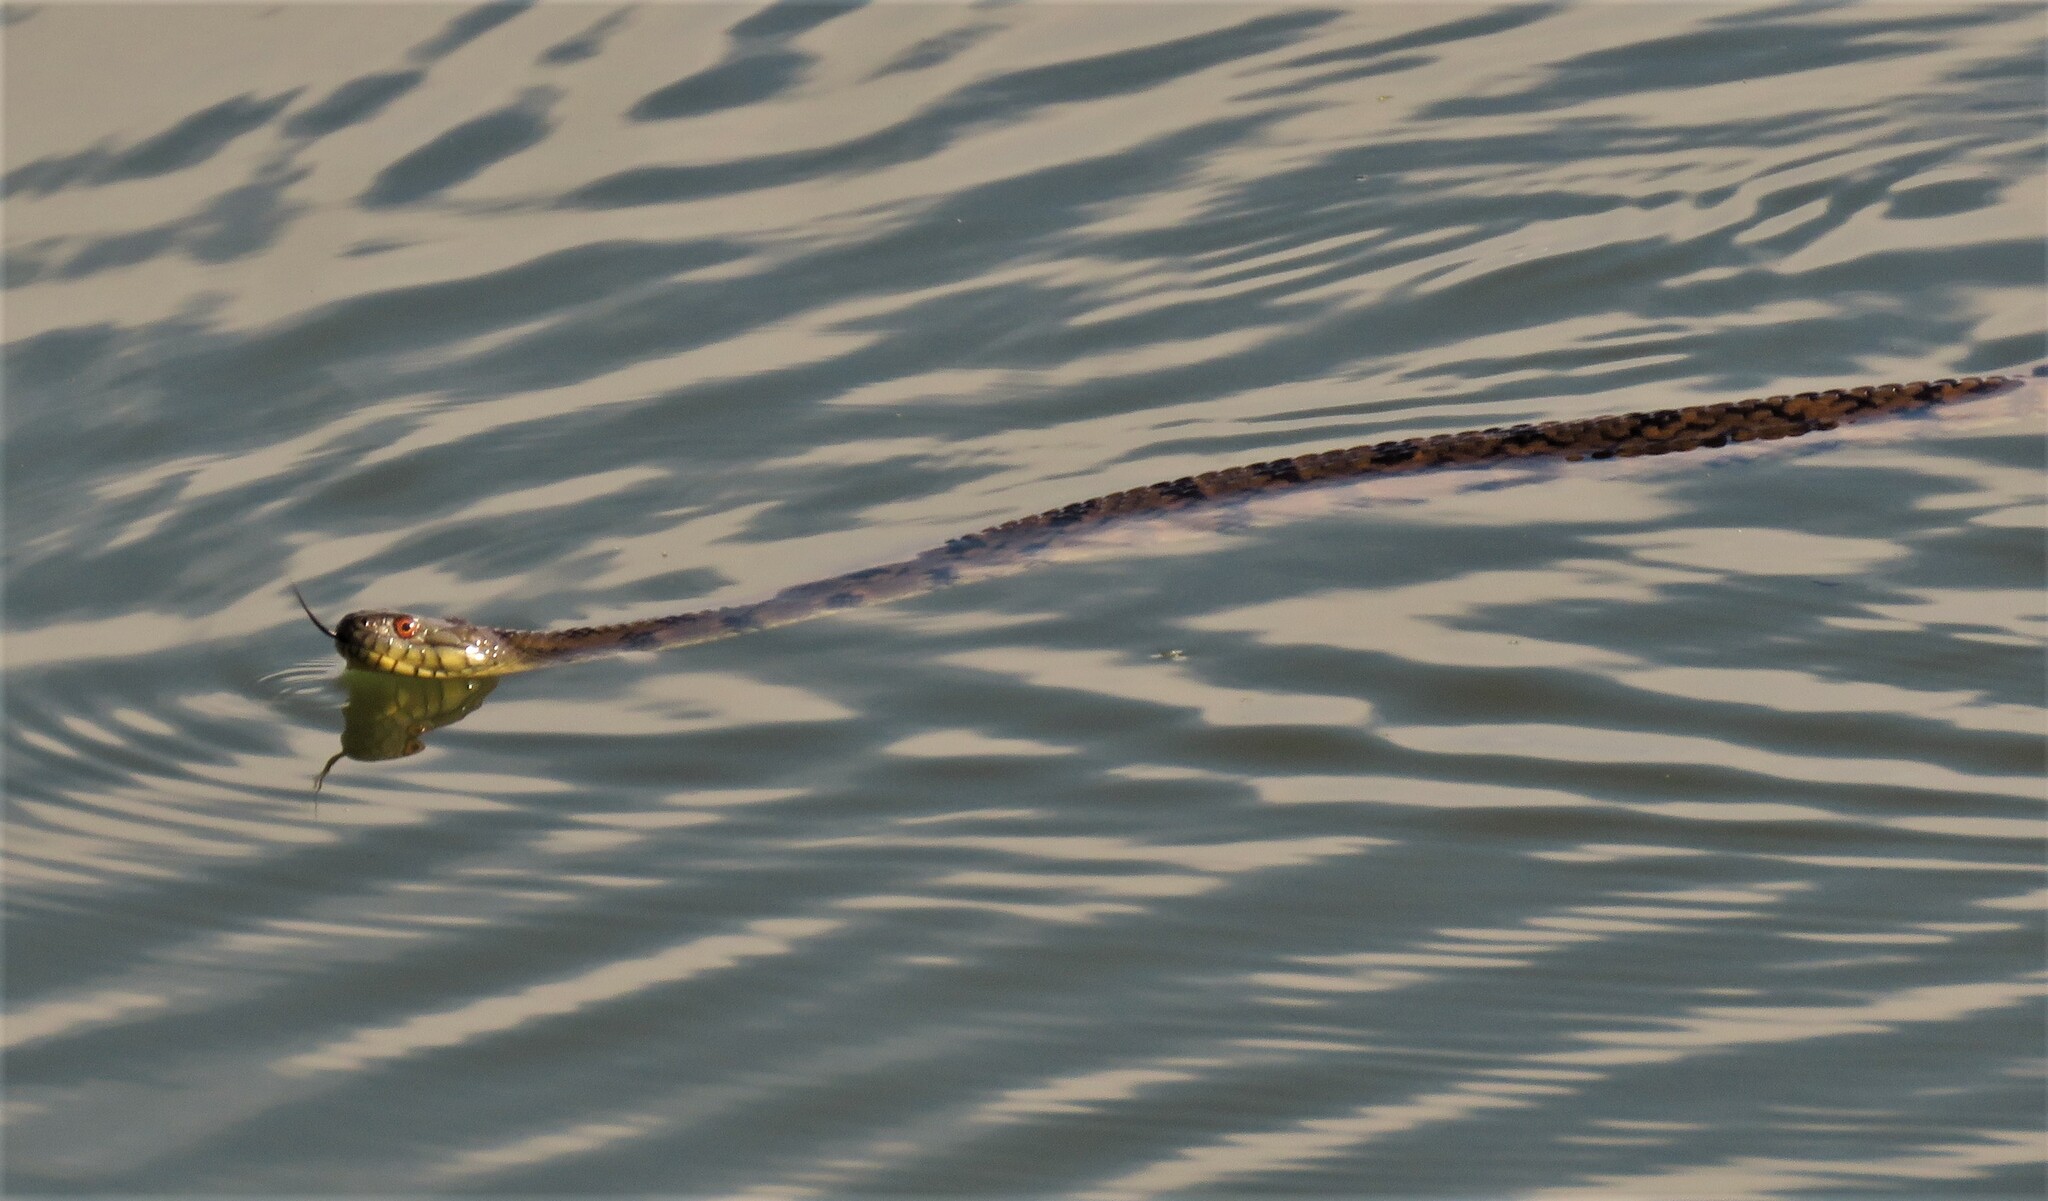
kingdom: Animalia
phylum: Chordata
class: Squamata
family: Colubridae
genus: Nerodia
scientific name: Nerodia rhombifer
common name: Diamondback water snake
